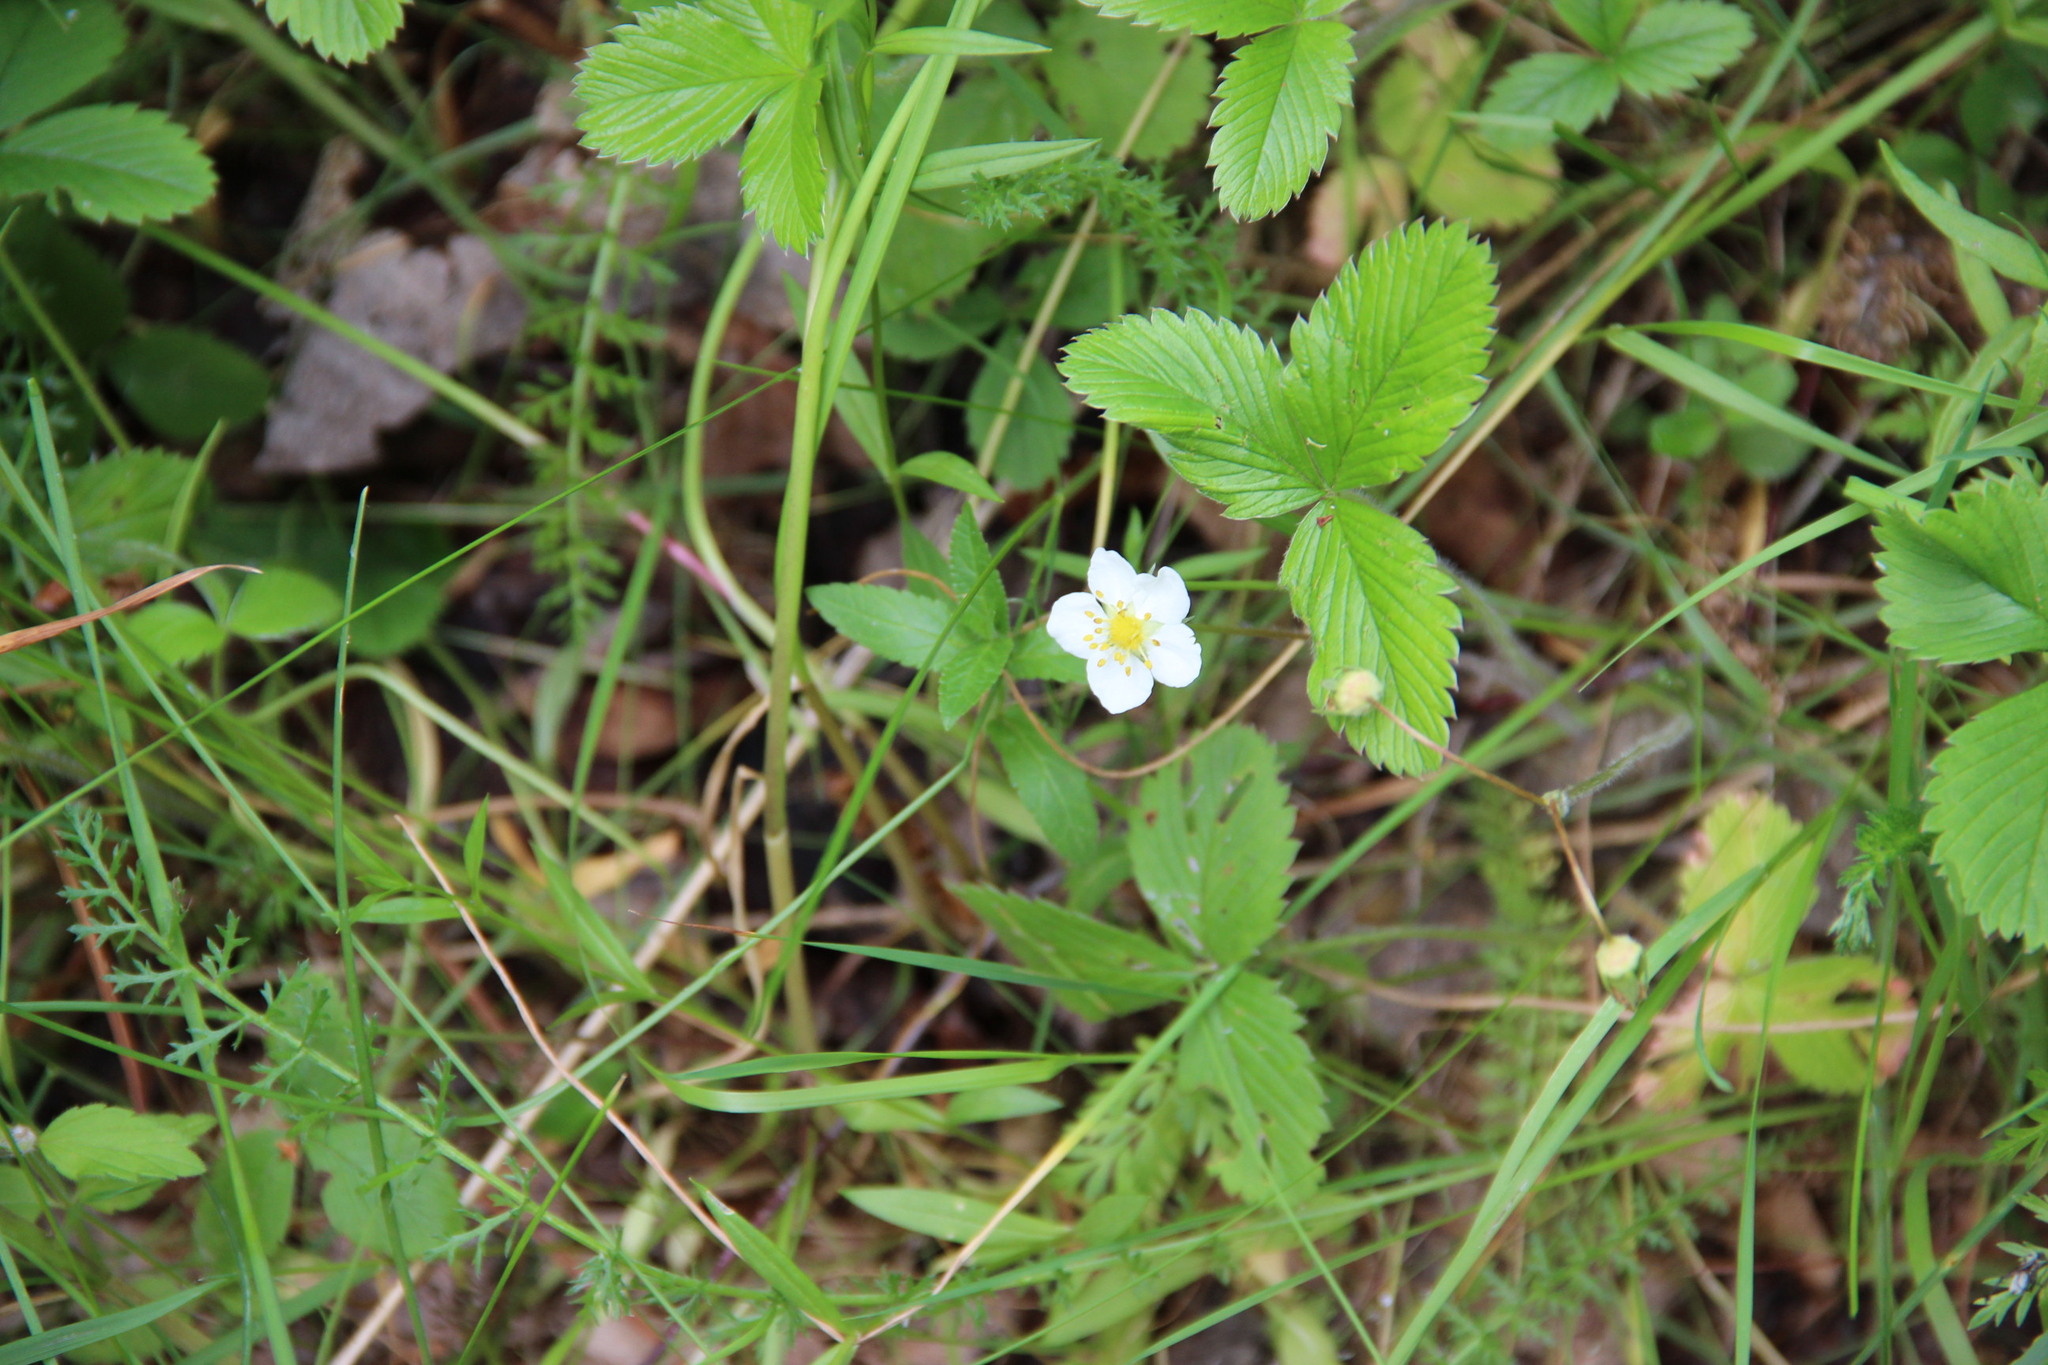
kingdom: Plantae
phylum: Tracheophyta
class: Magnoliopsida
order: Rosales
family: Rosaceae
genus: Fragaria
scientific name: Fragaria viridis
